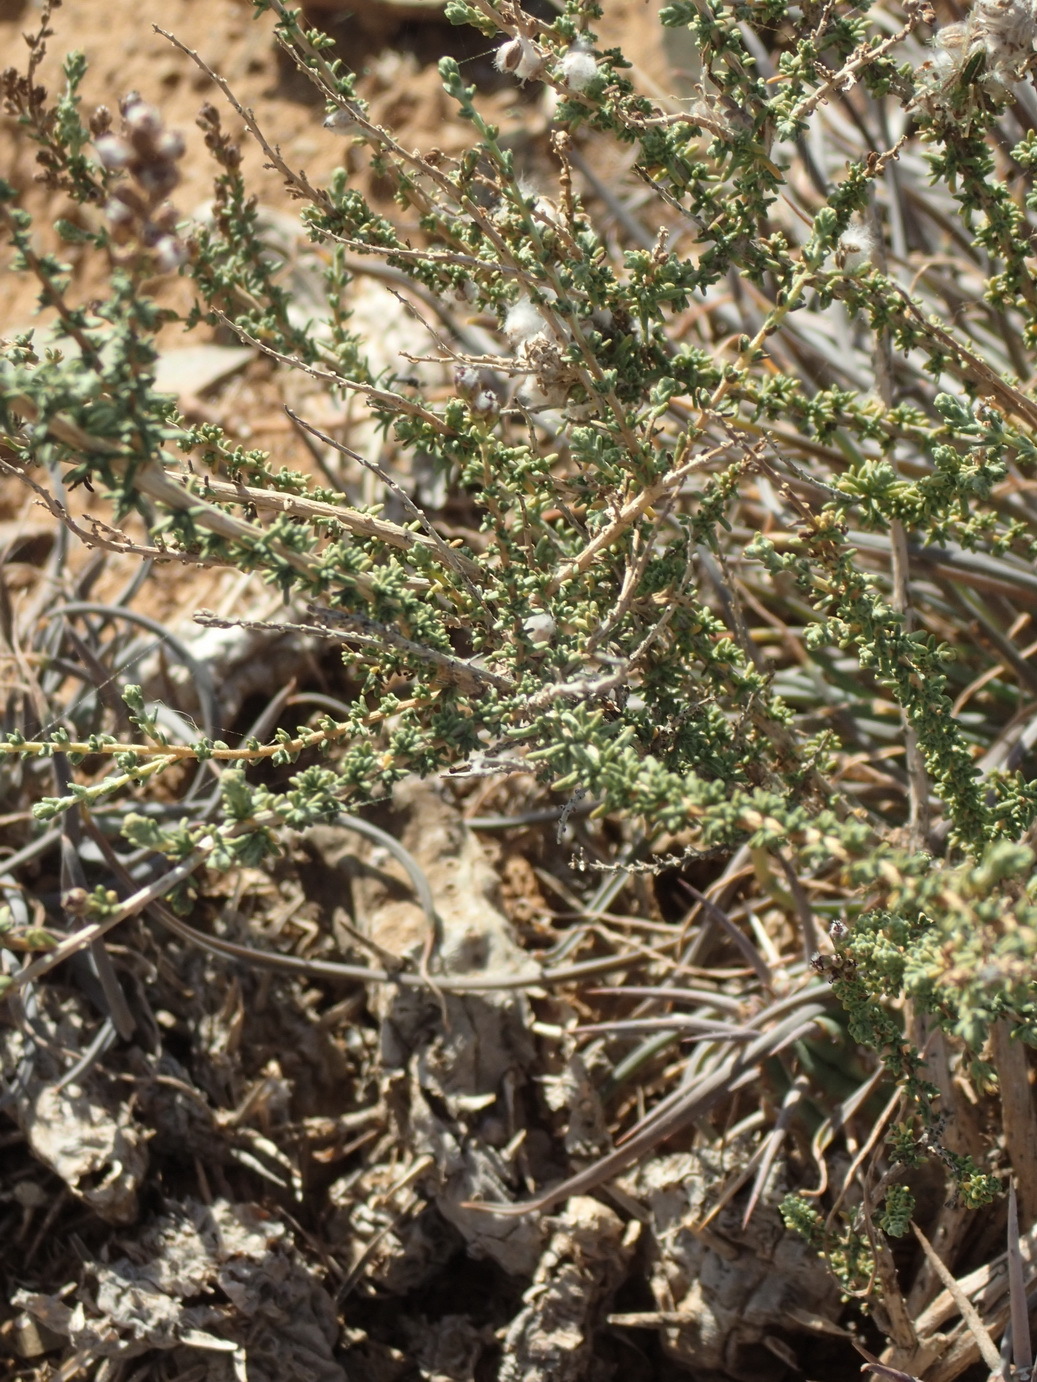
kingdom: Plantae
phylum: Tracheophyta
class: Magnoliopsida
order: Asterales
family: Asteraceae
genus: Eriocephalus
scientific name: Eriocephalus spinescens
